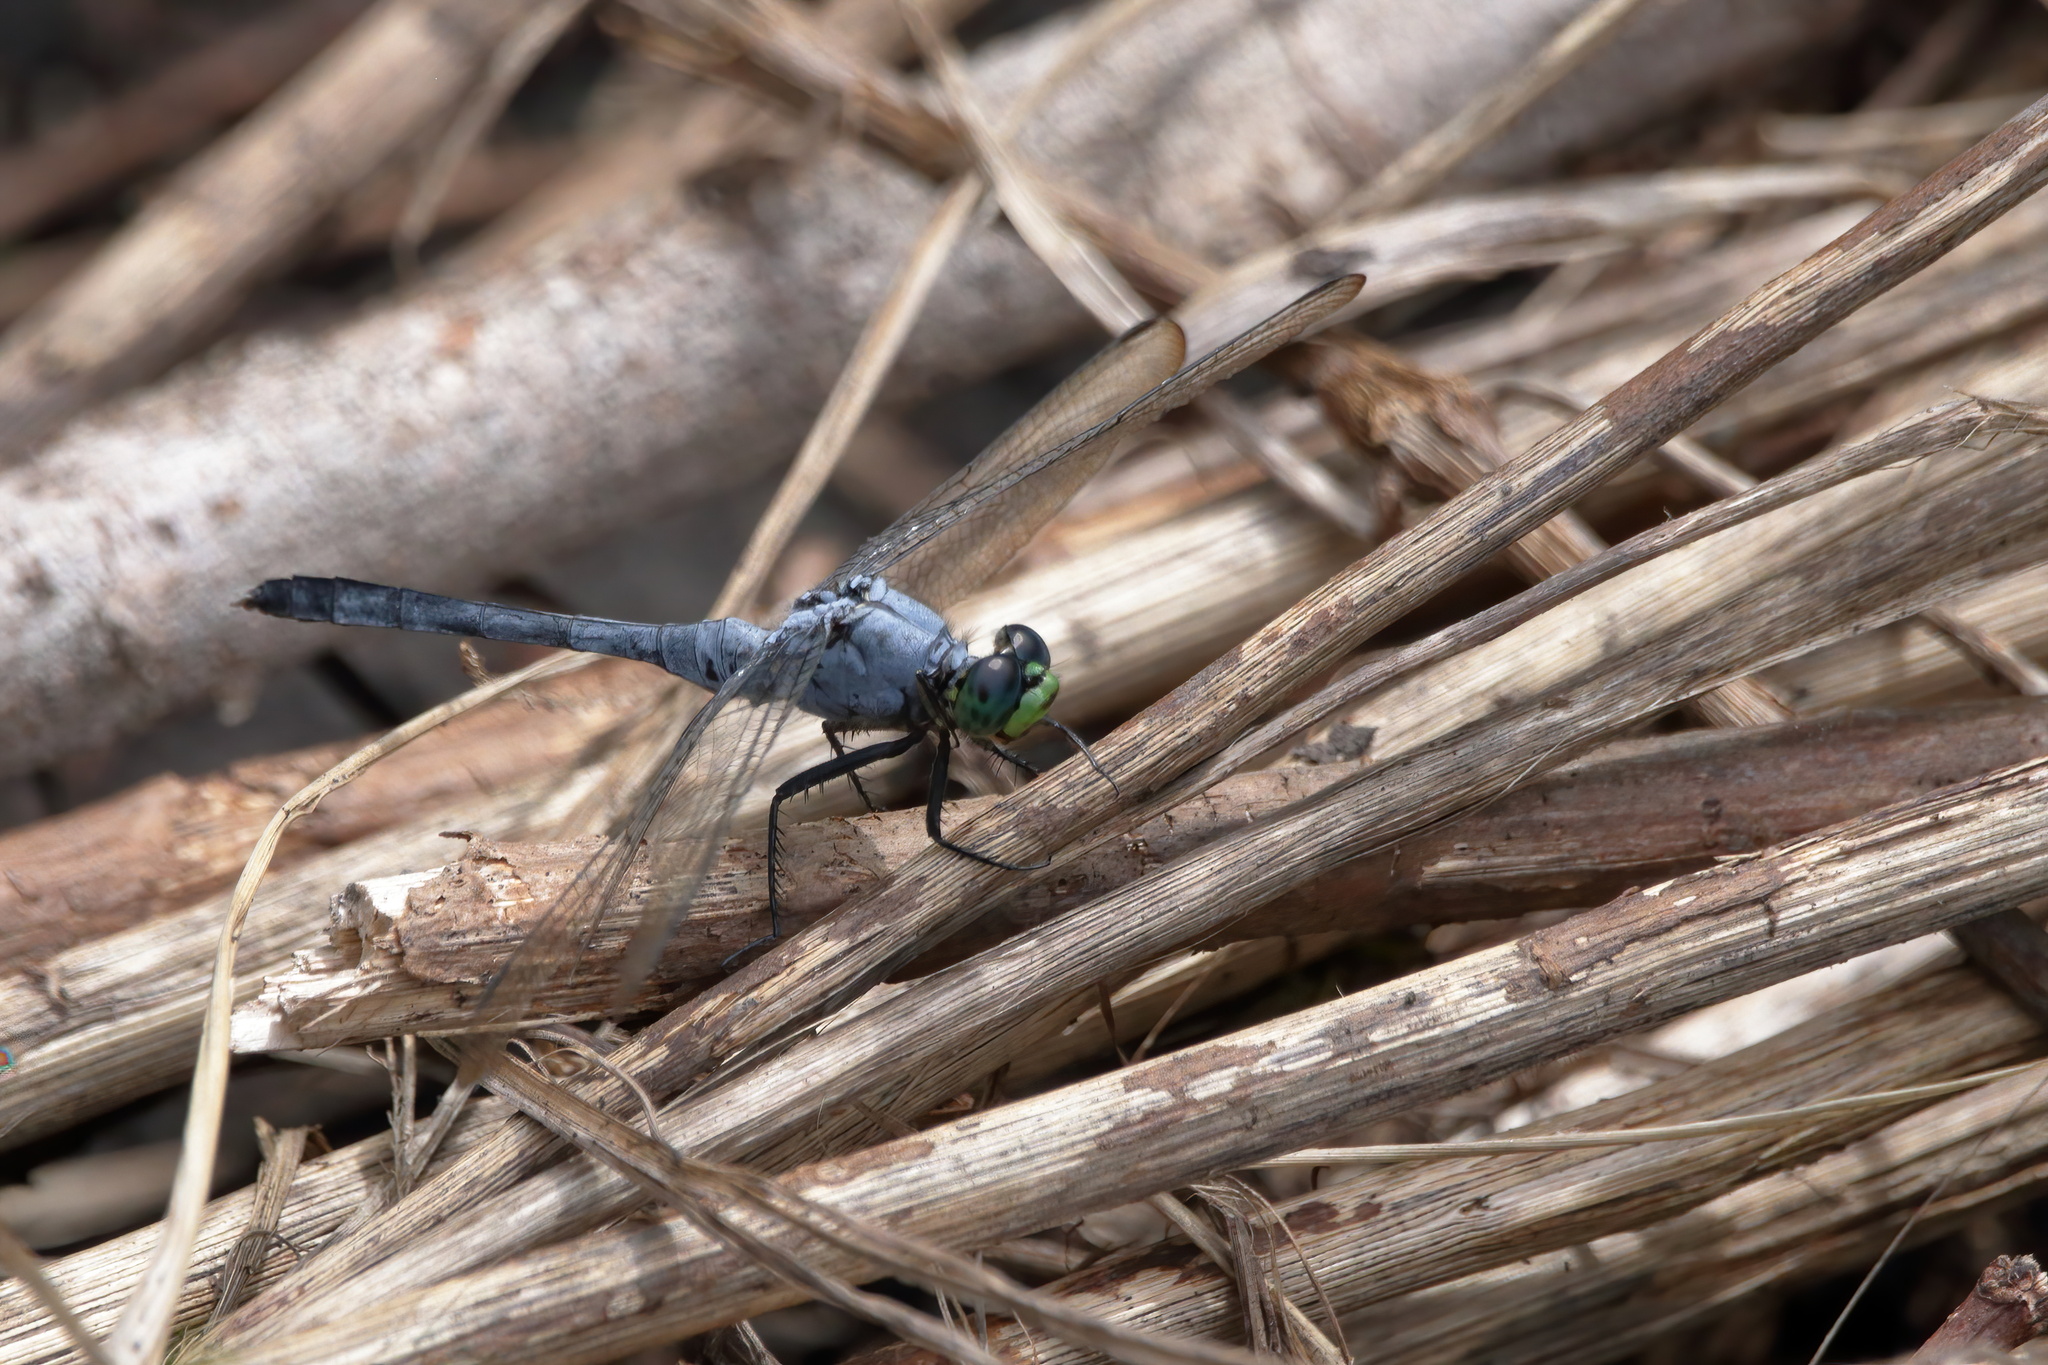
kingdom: Animalia
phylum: Arthropoda
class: Insecta
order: Odonata
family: Libellulidae
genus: Erythemis
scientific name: Erythemis simplicicollis
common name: Eastern pondhawk
